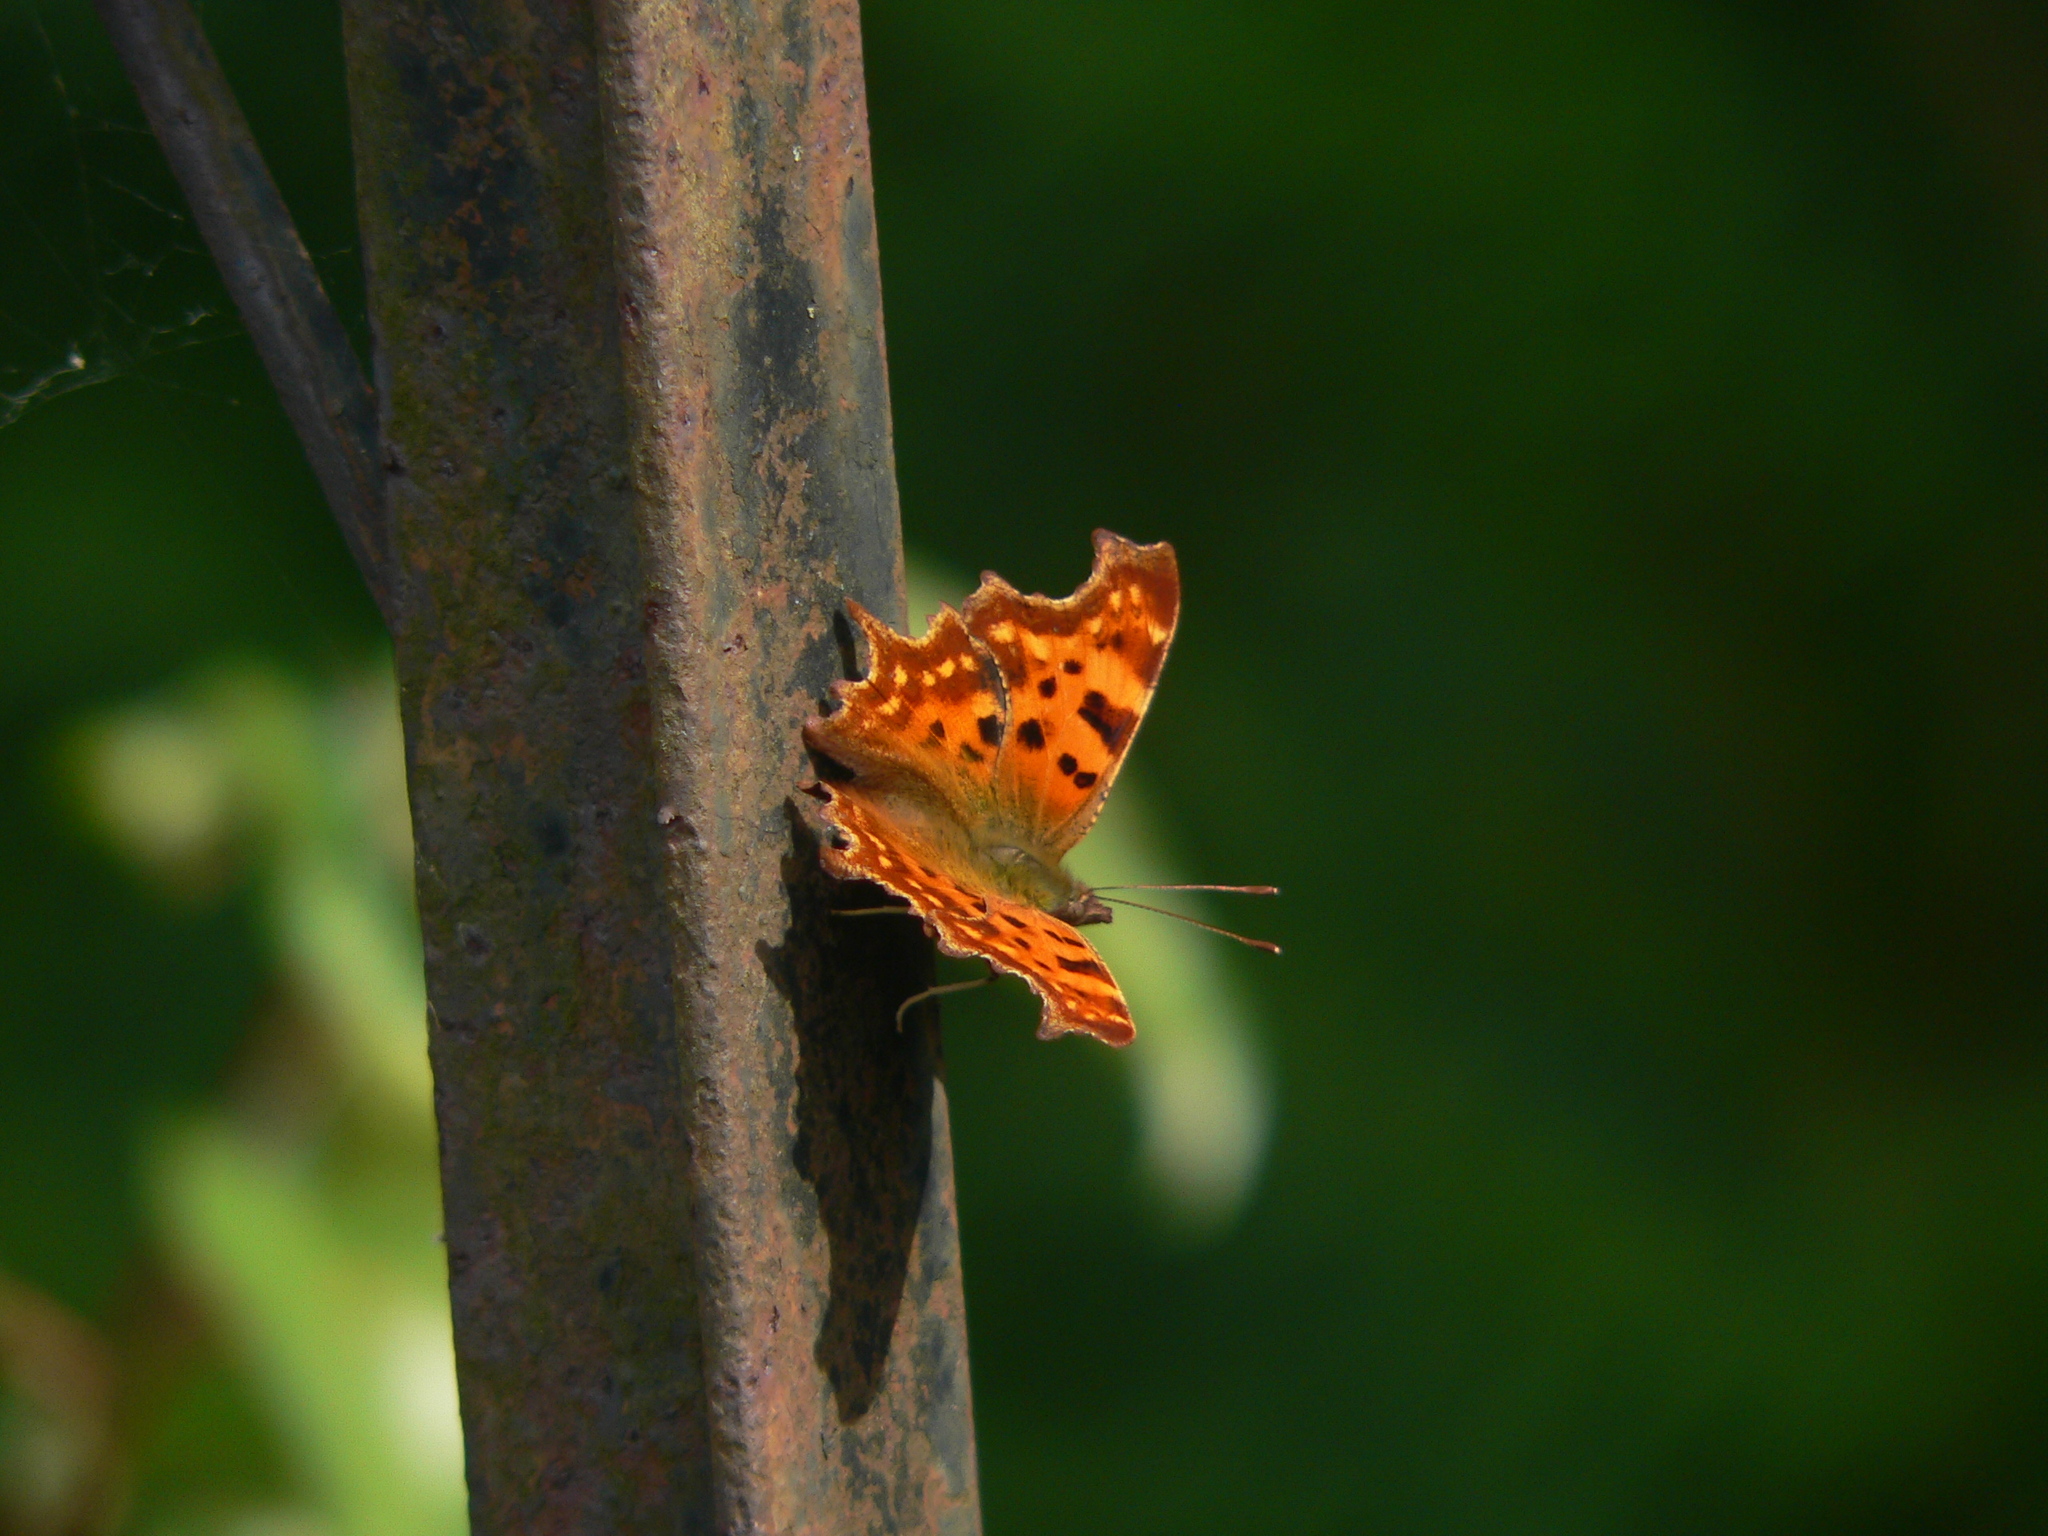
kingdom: Animalia
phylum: Arthropoda
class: Insecta
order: Lepidoptera
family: Nymphalidae
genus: Polygonia
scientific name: Polygonia c-album
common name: Comma
